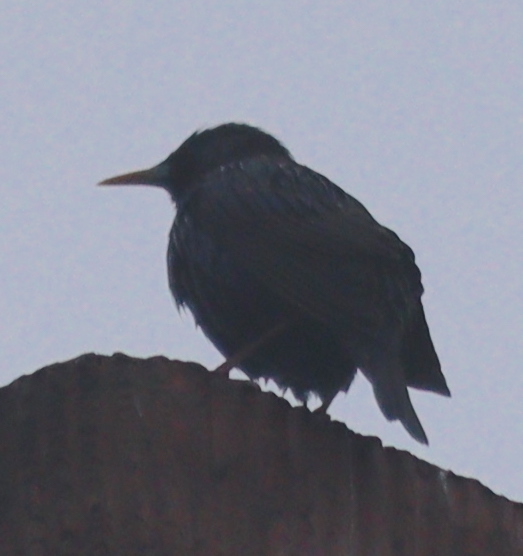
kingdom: Animalia
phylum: Chordata
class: Aves
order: Passeriformes
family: Sturnidae
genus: Sturnus
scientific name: Sturnus vulgaris
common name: Common starling
